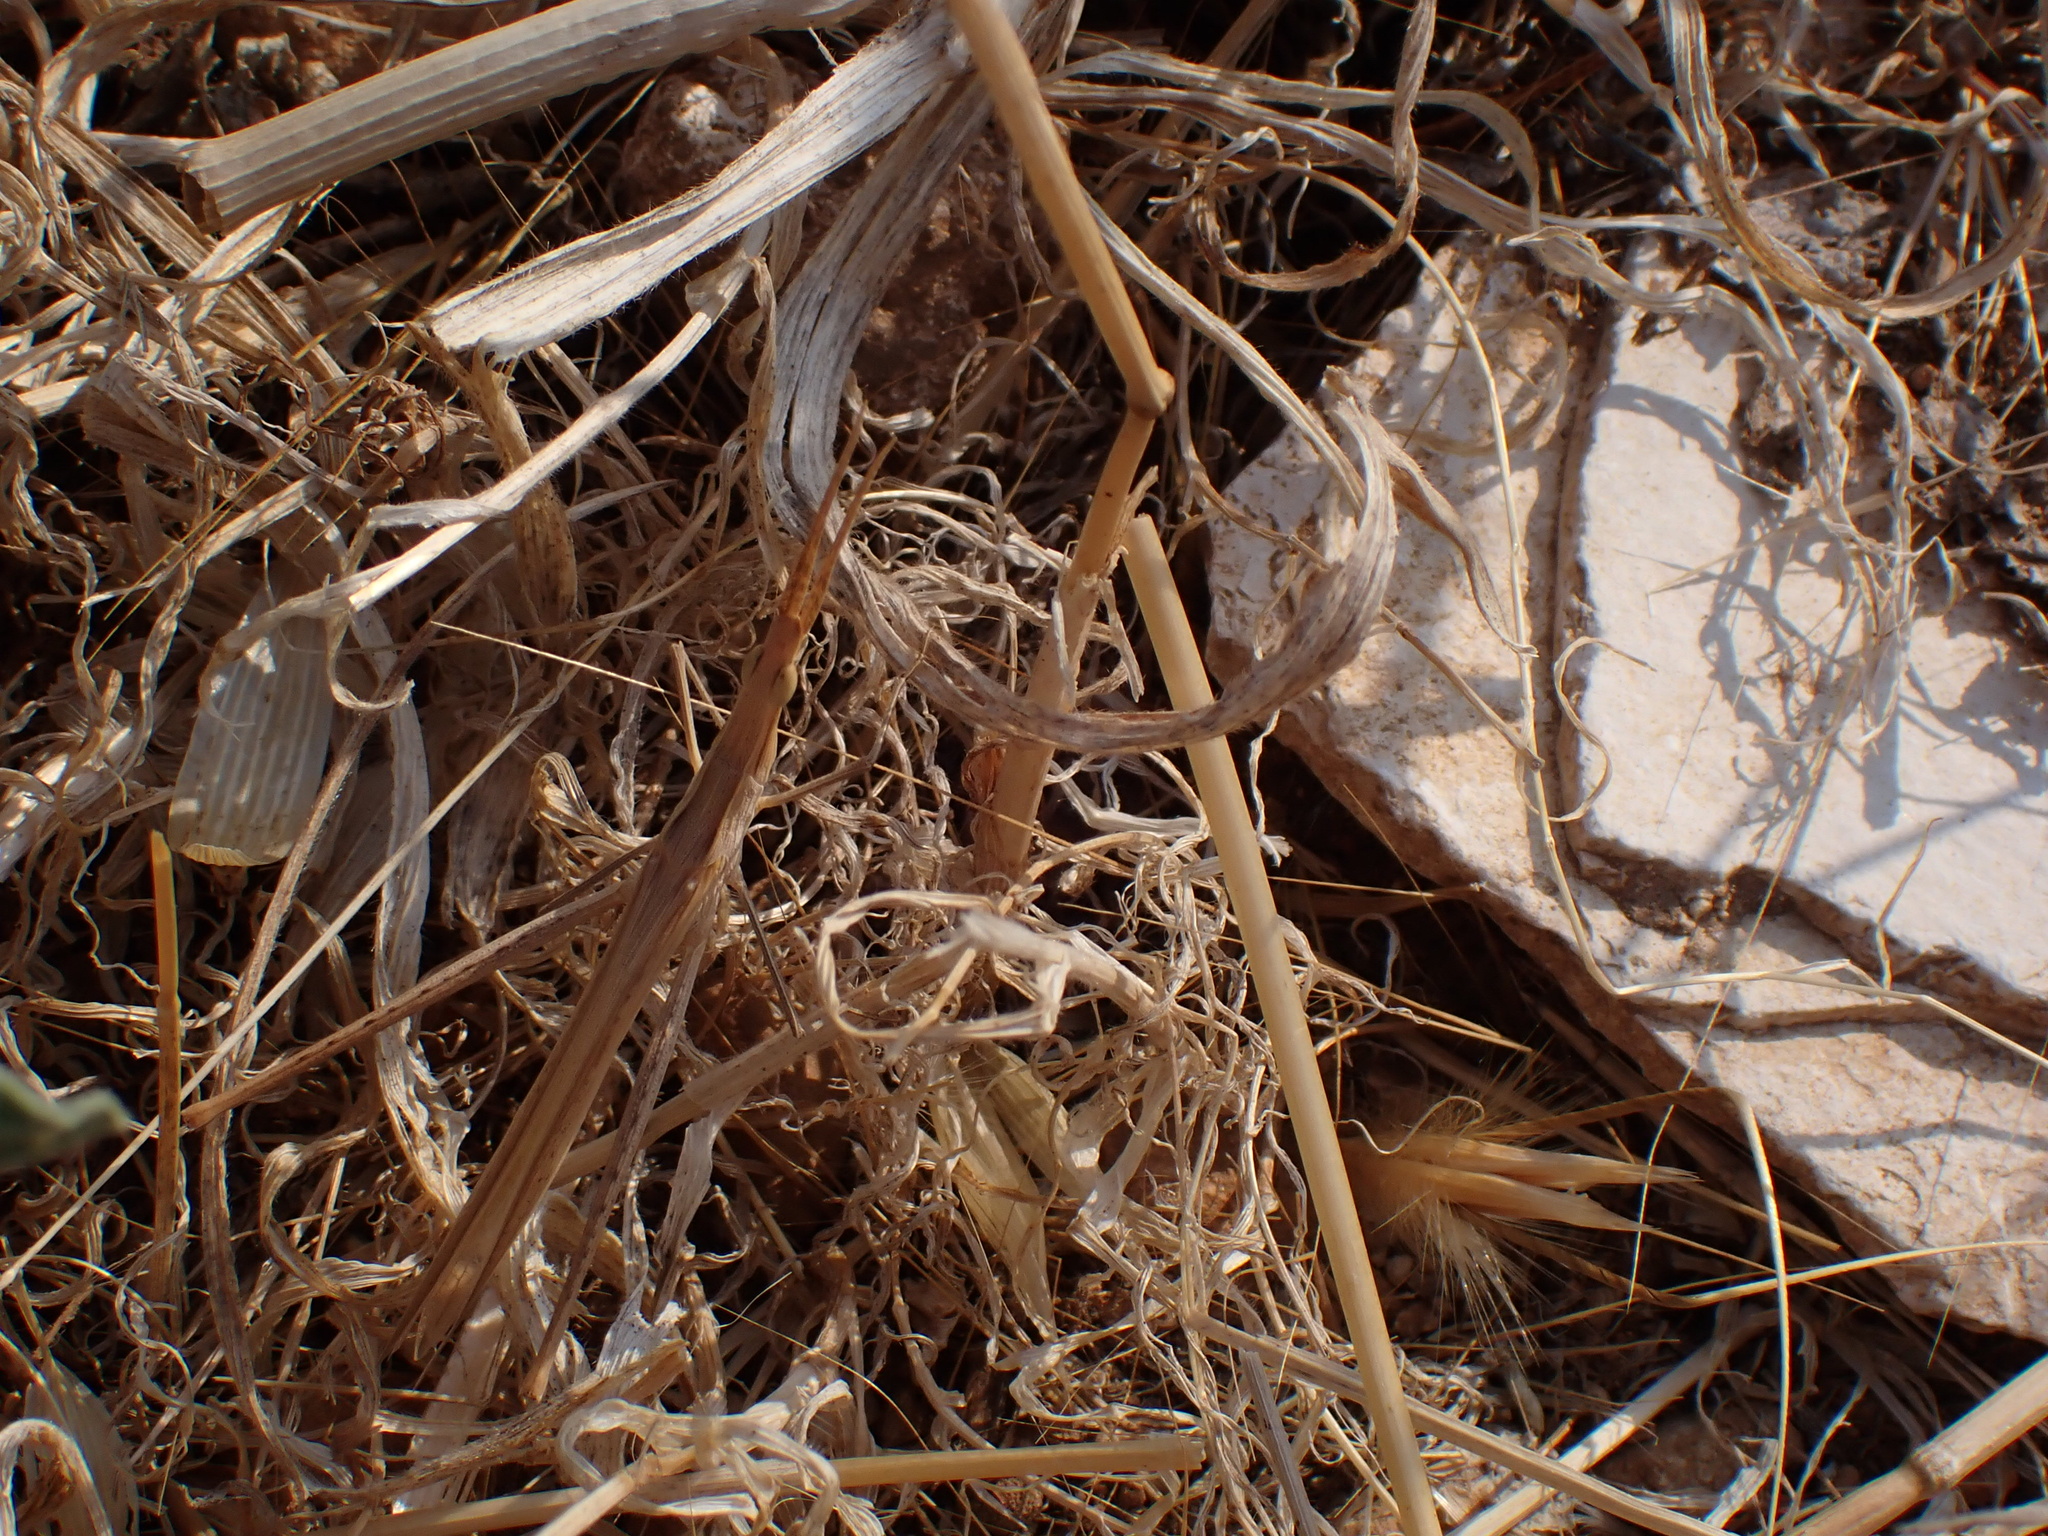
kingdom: Animalia
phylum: Arthropoda
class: Insecta
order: Orthoptera
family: Acrididae
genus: Acrida
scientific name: Acrida ungarica
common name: Common cone-headed grasshopper
